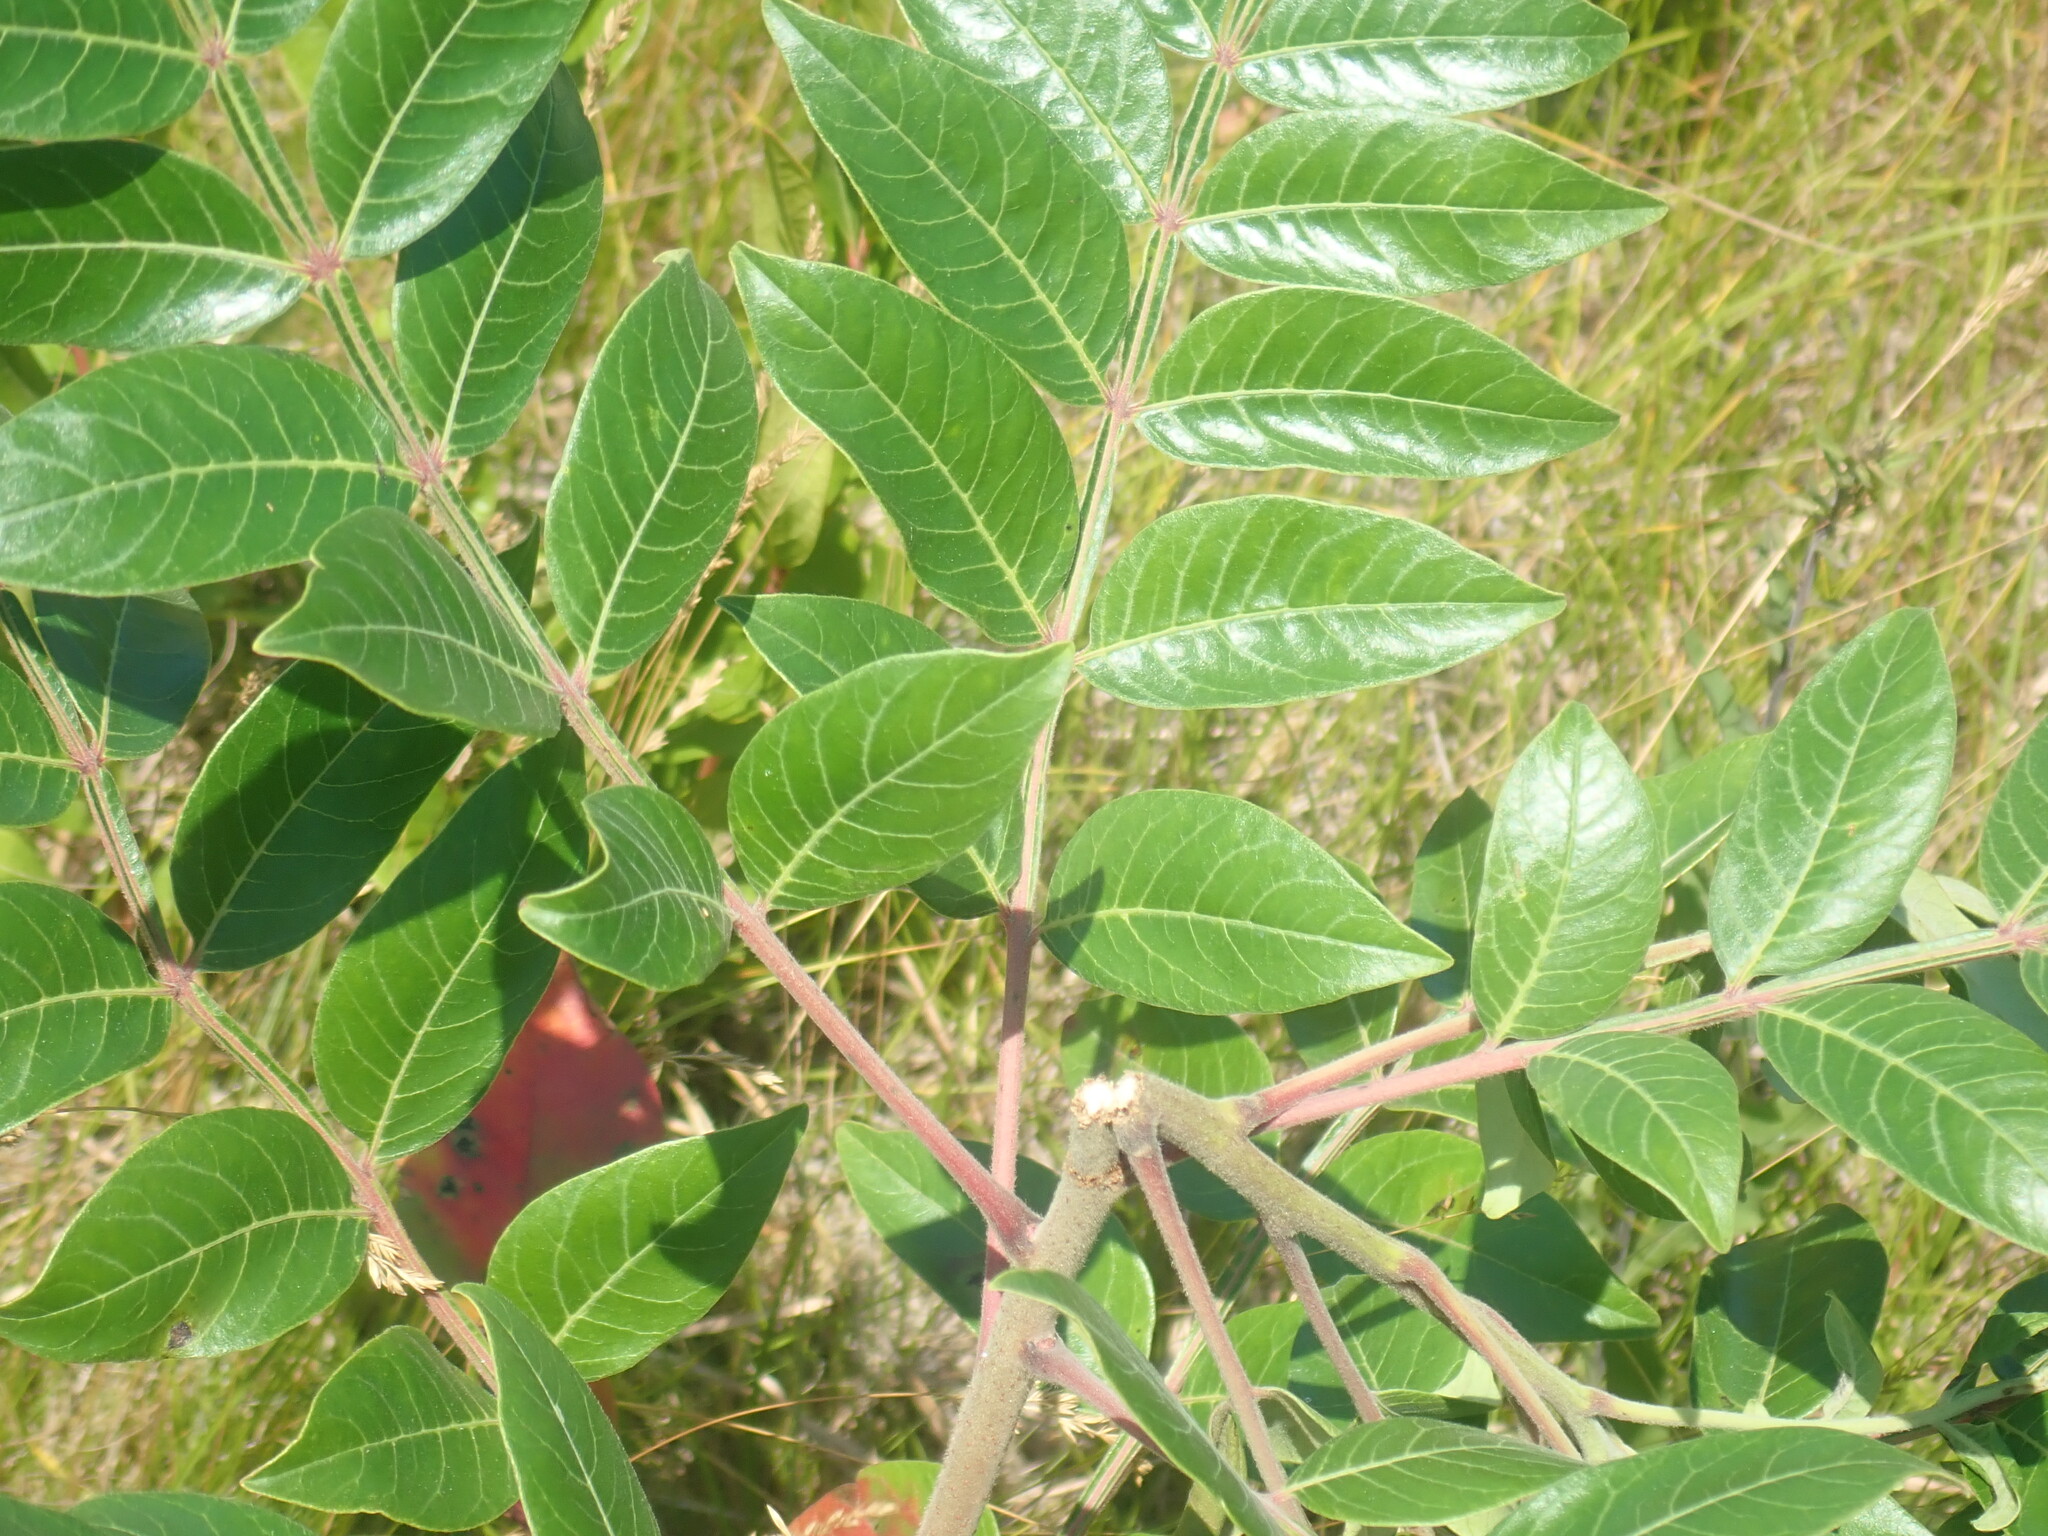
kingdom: Plantae
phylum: Tracheophyta
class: Magnoliopsida
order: Sapindales
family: Anacardiaceae
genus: Rhus
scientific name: Rhus copallina
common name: Shining sumac
